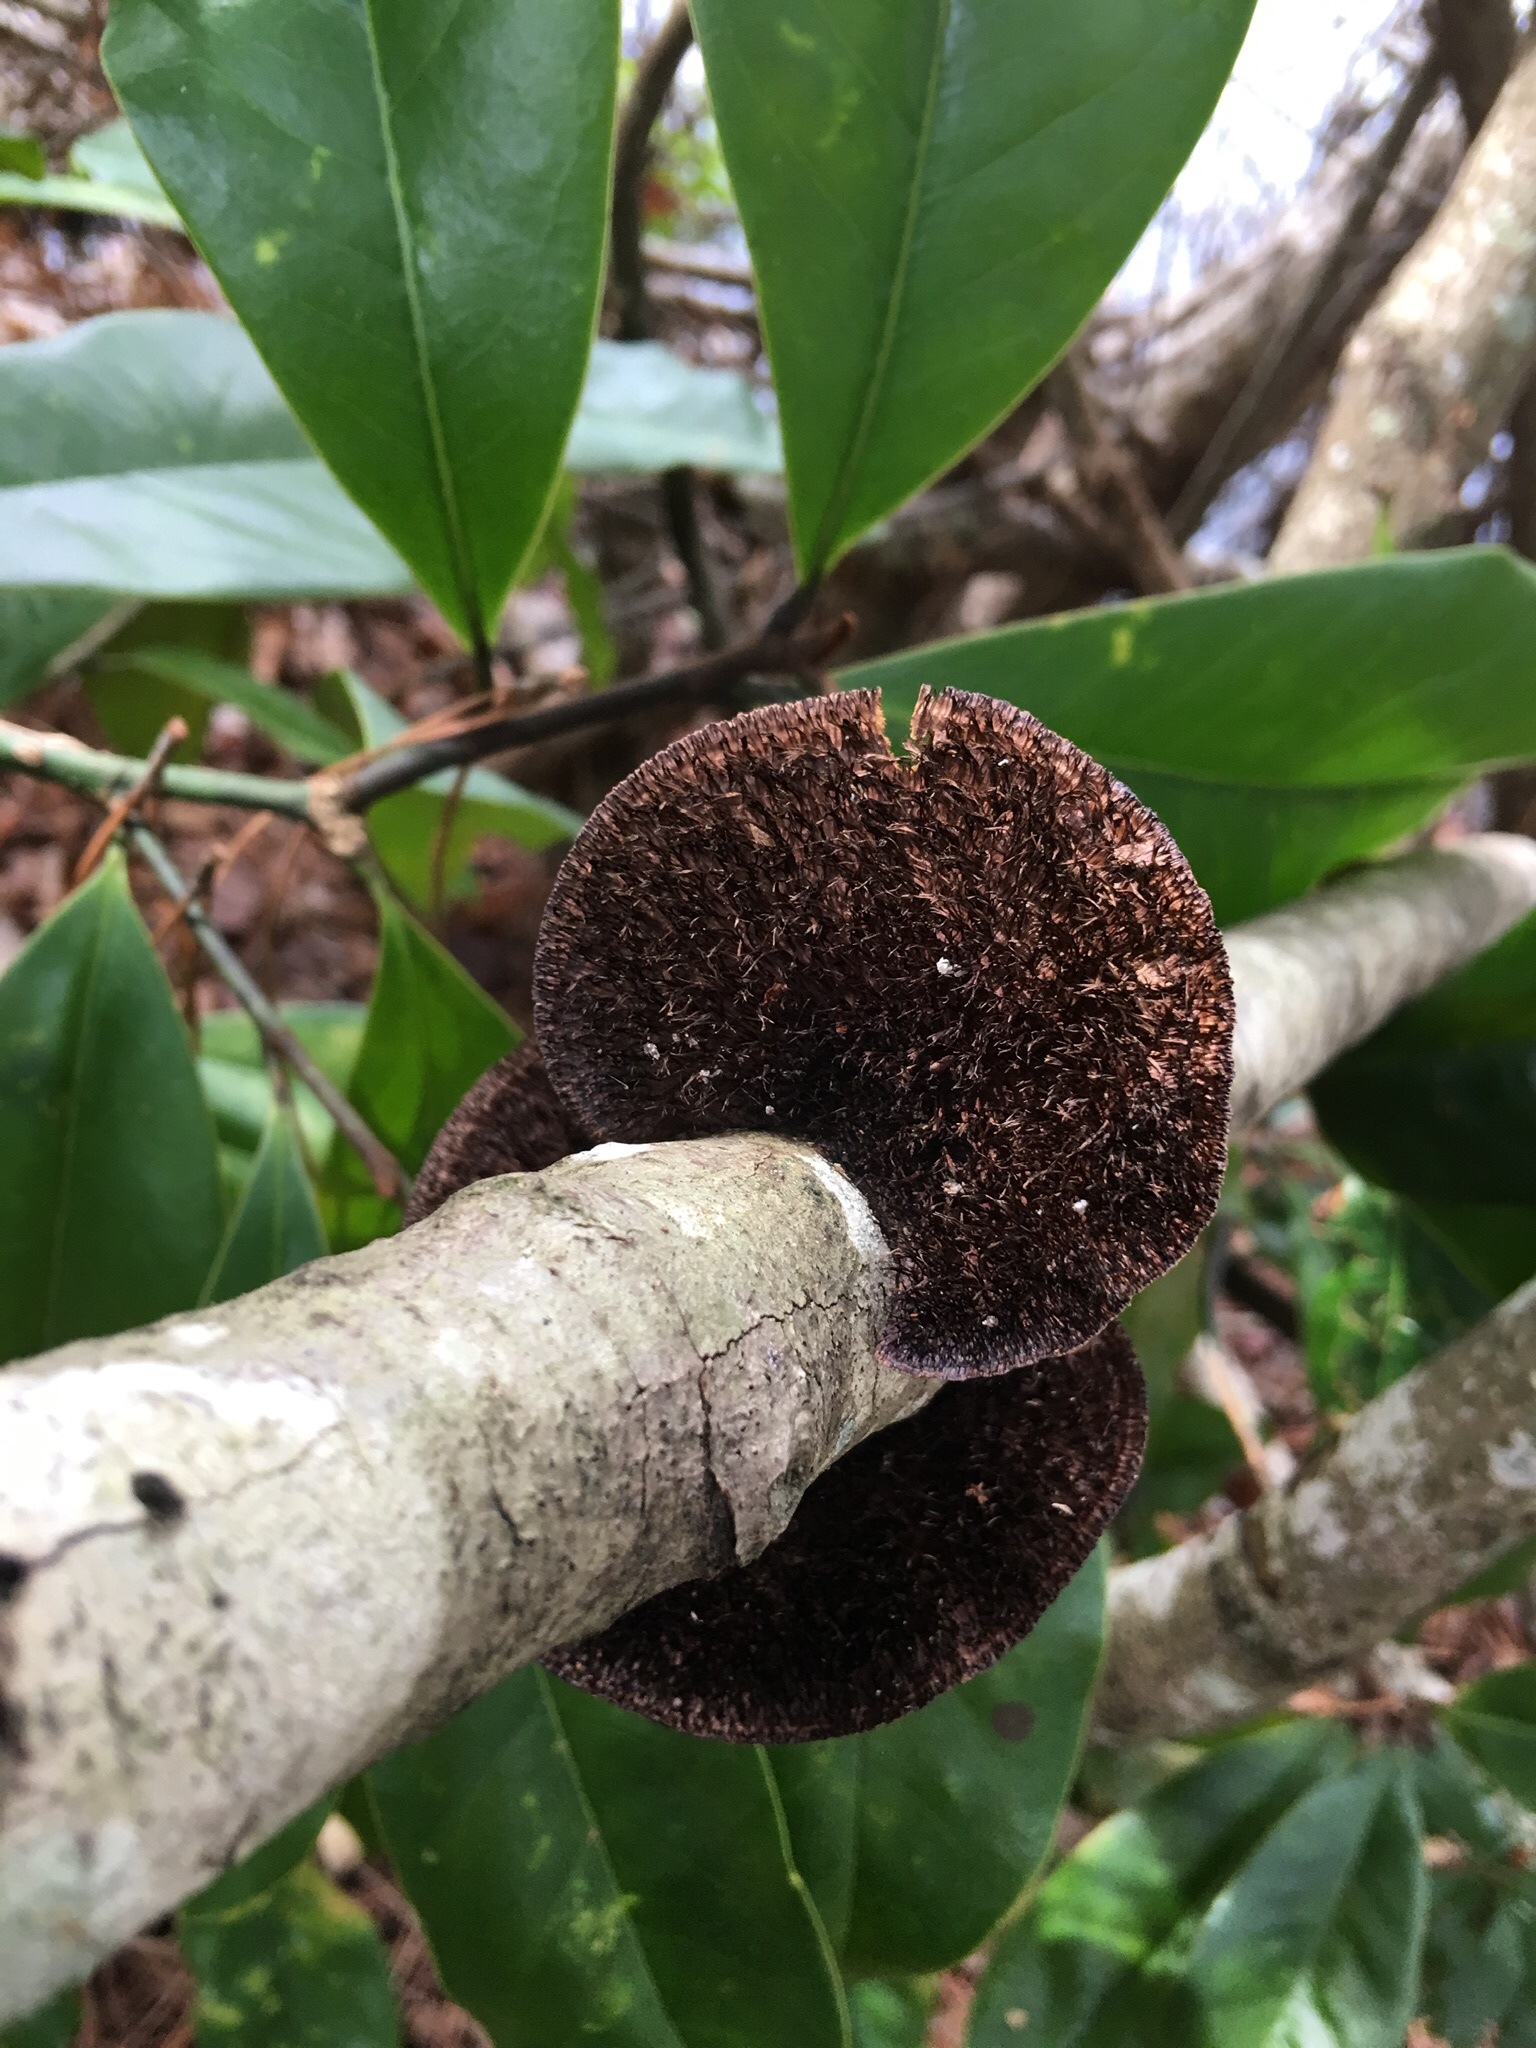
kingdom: Fungi
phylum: Basidiomycota
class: Agaricomycetes
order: Polyporales
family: Cerrenaceae
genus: Cerrena
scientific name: Cerrena hydnoides
